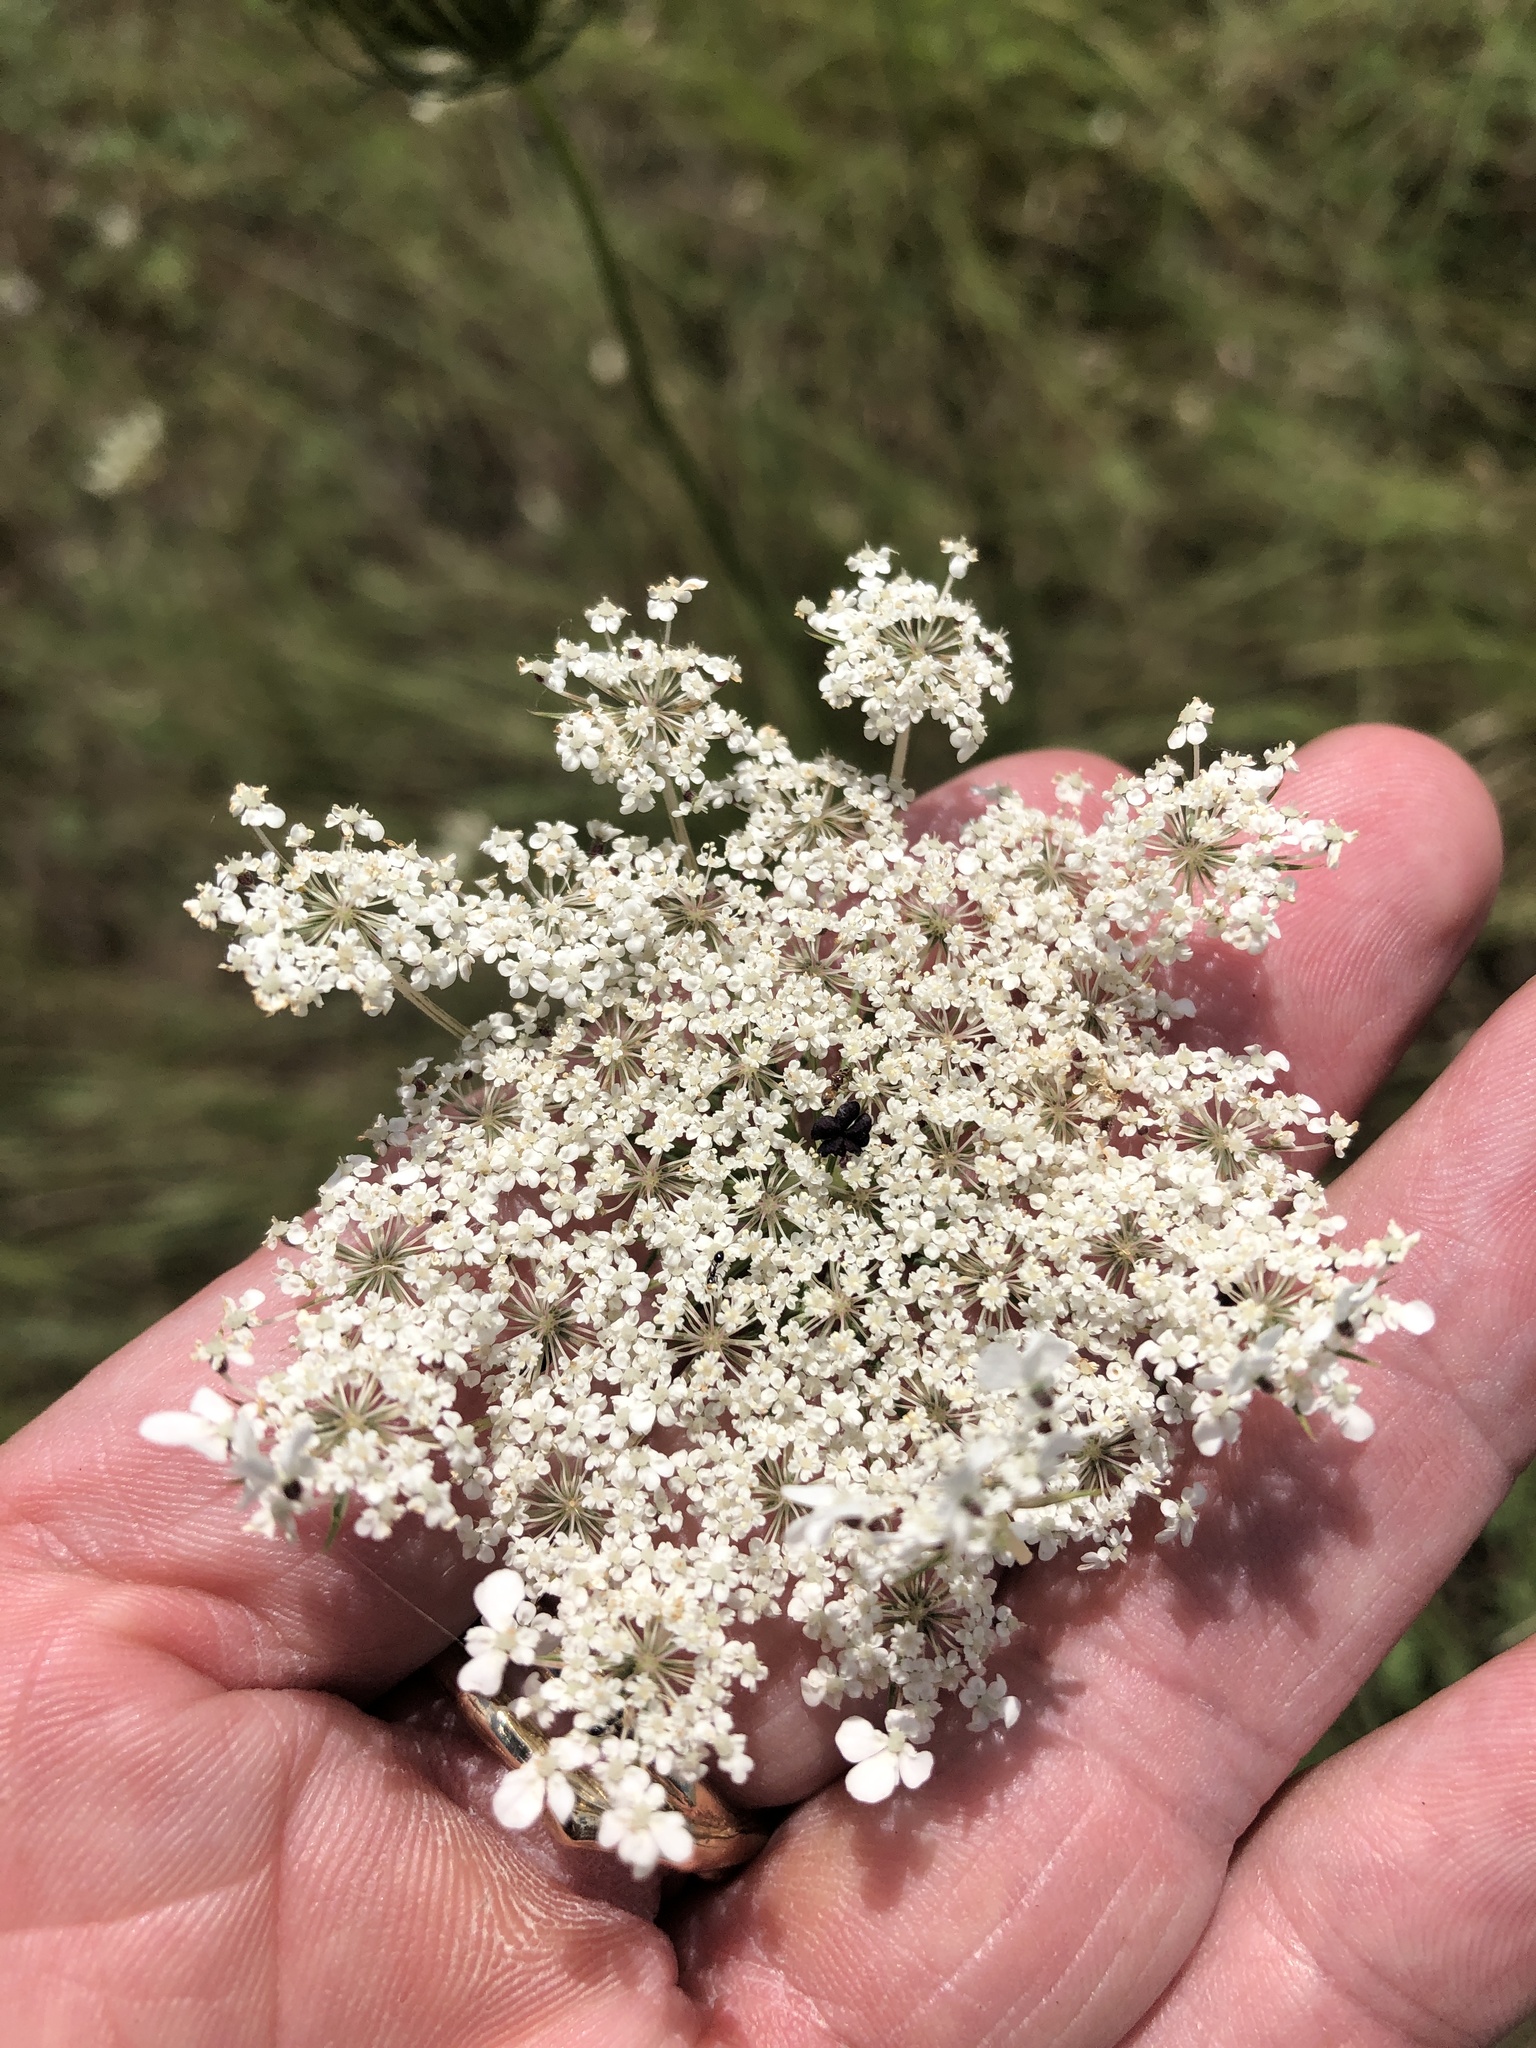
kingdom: Plantae
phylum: Tracheophyta
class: Magnoliopsida
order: Apiales
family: Apiaceae
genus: Daucus
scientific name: Daucus carota
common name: Wild carrot
